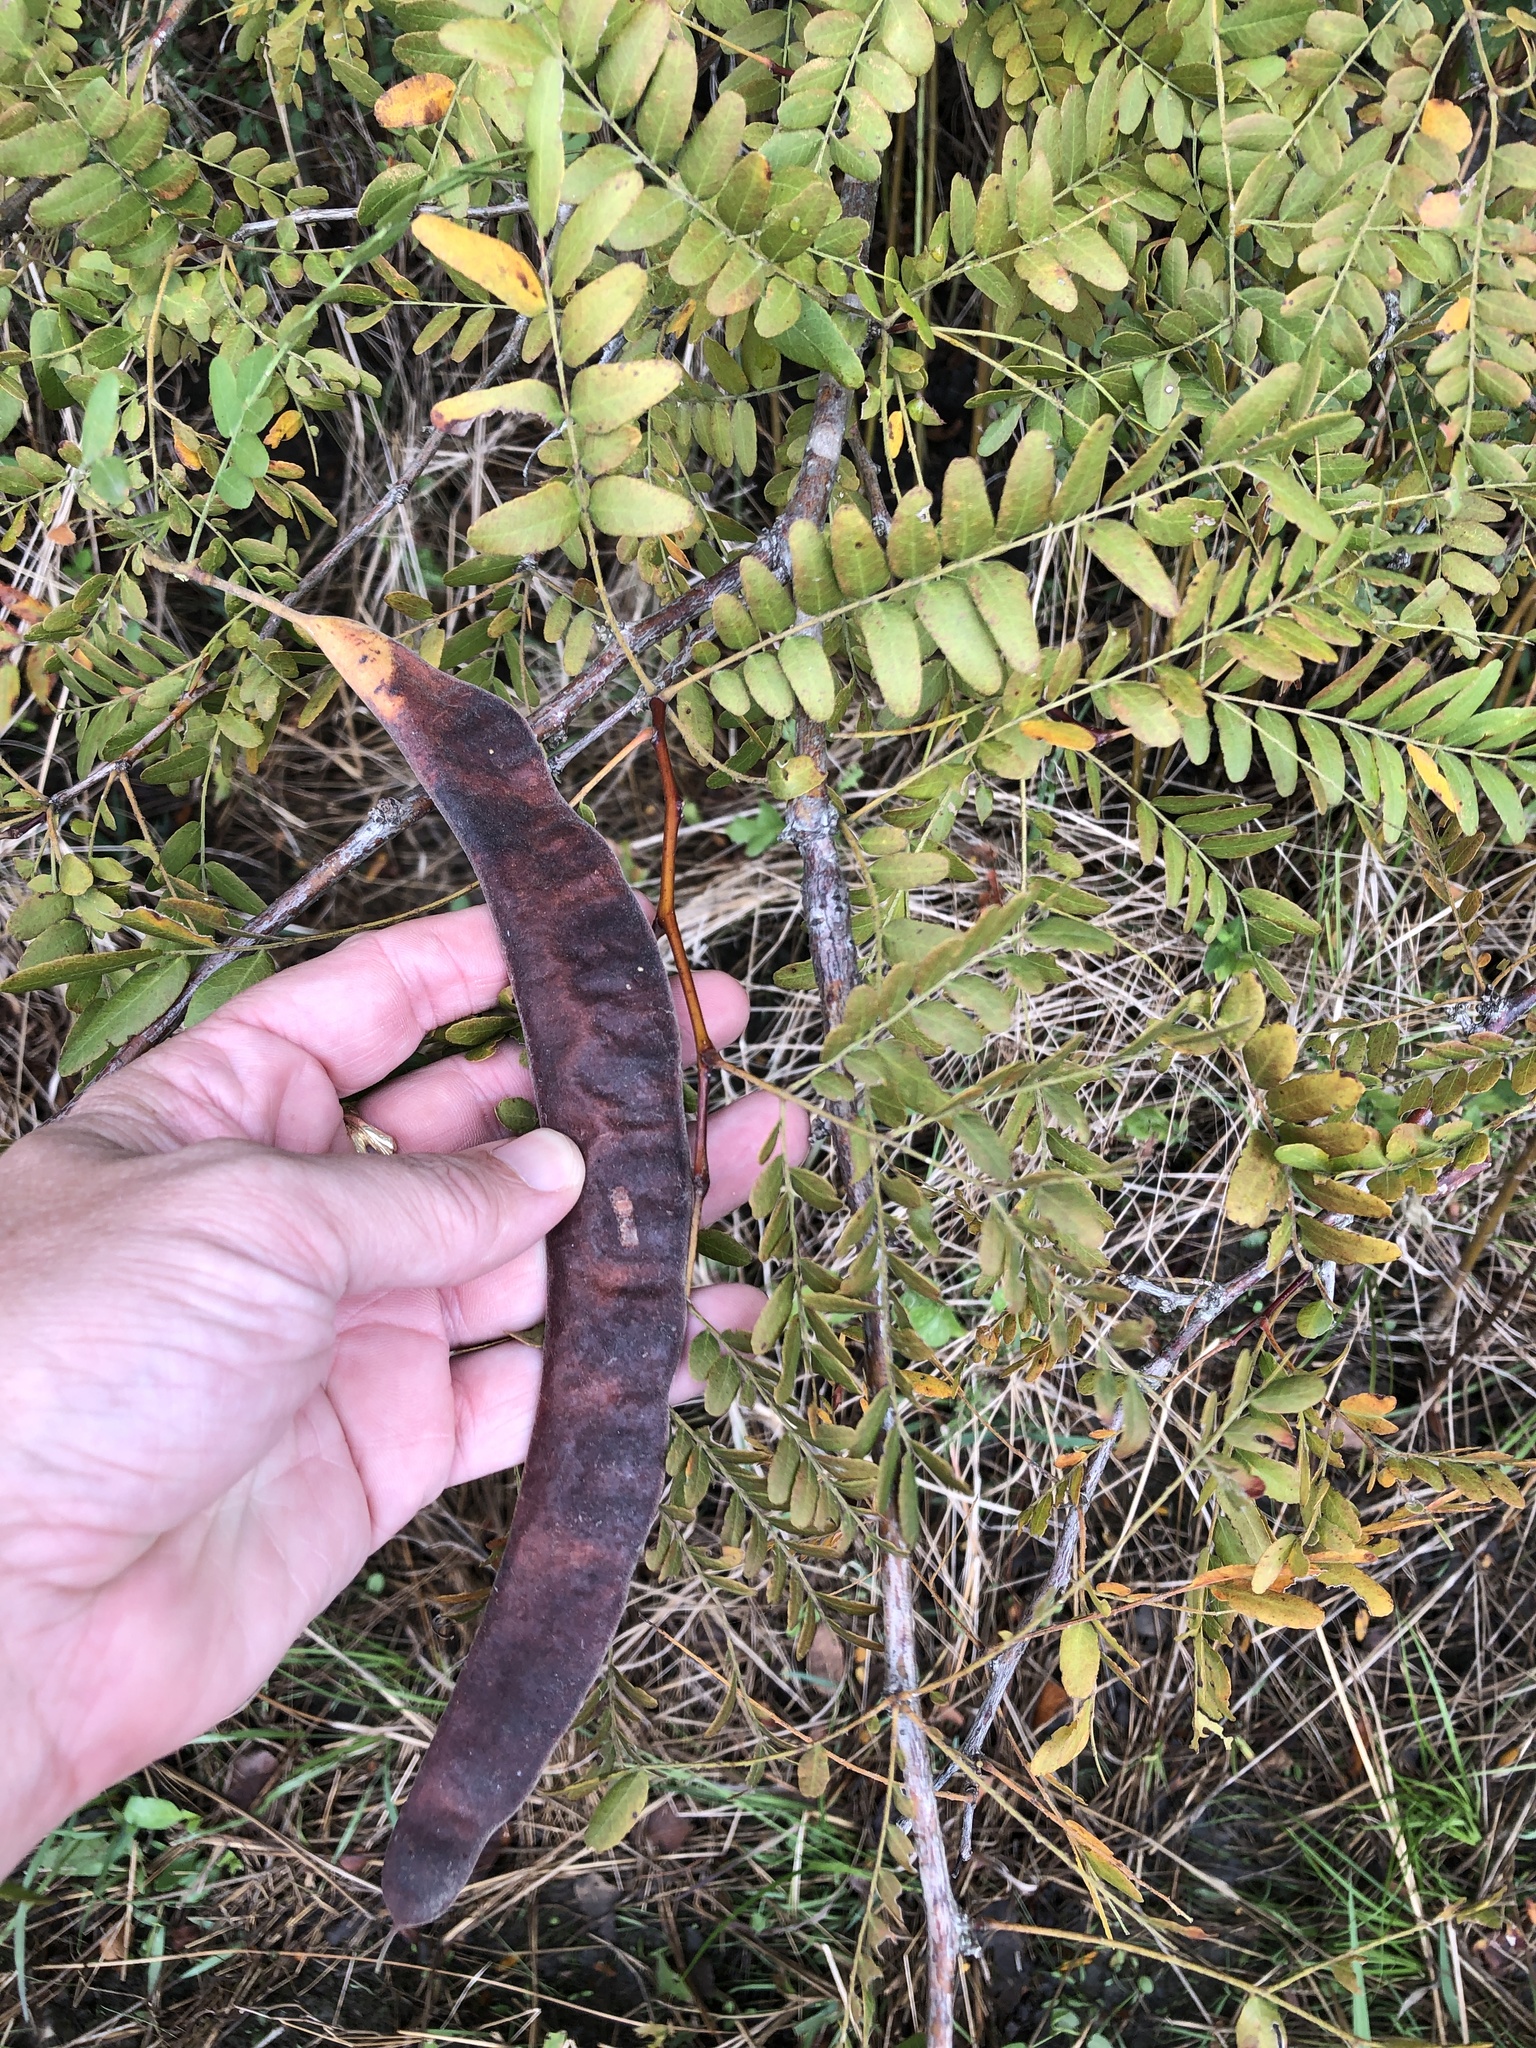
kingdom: Plantae
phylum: Tracheophyta
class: Magnoliopsida
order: Fabales
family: Fabaceae
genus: Gleditsia
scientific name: Gleditsia triacanthos
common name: Common honeylocust
